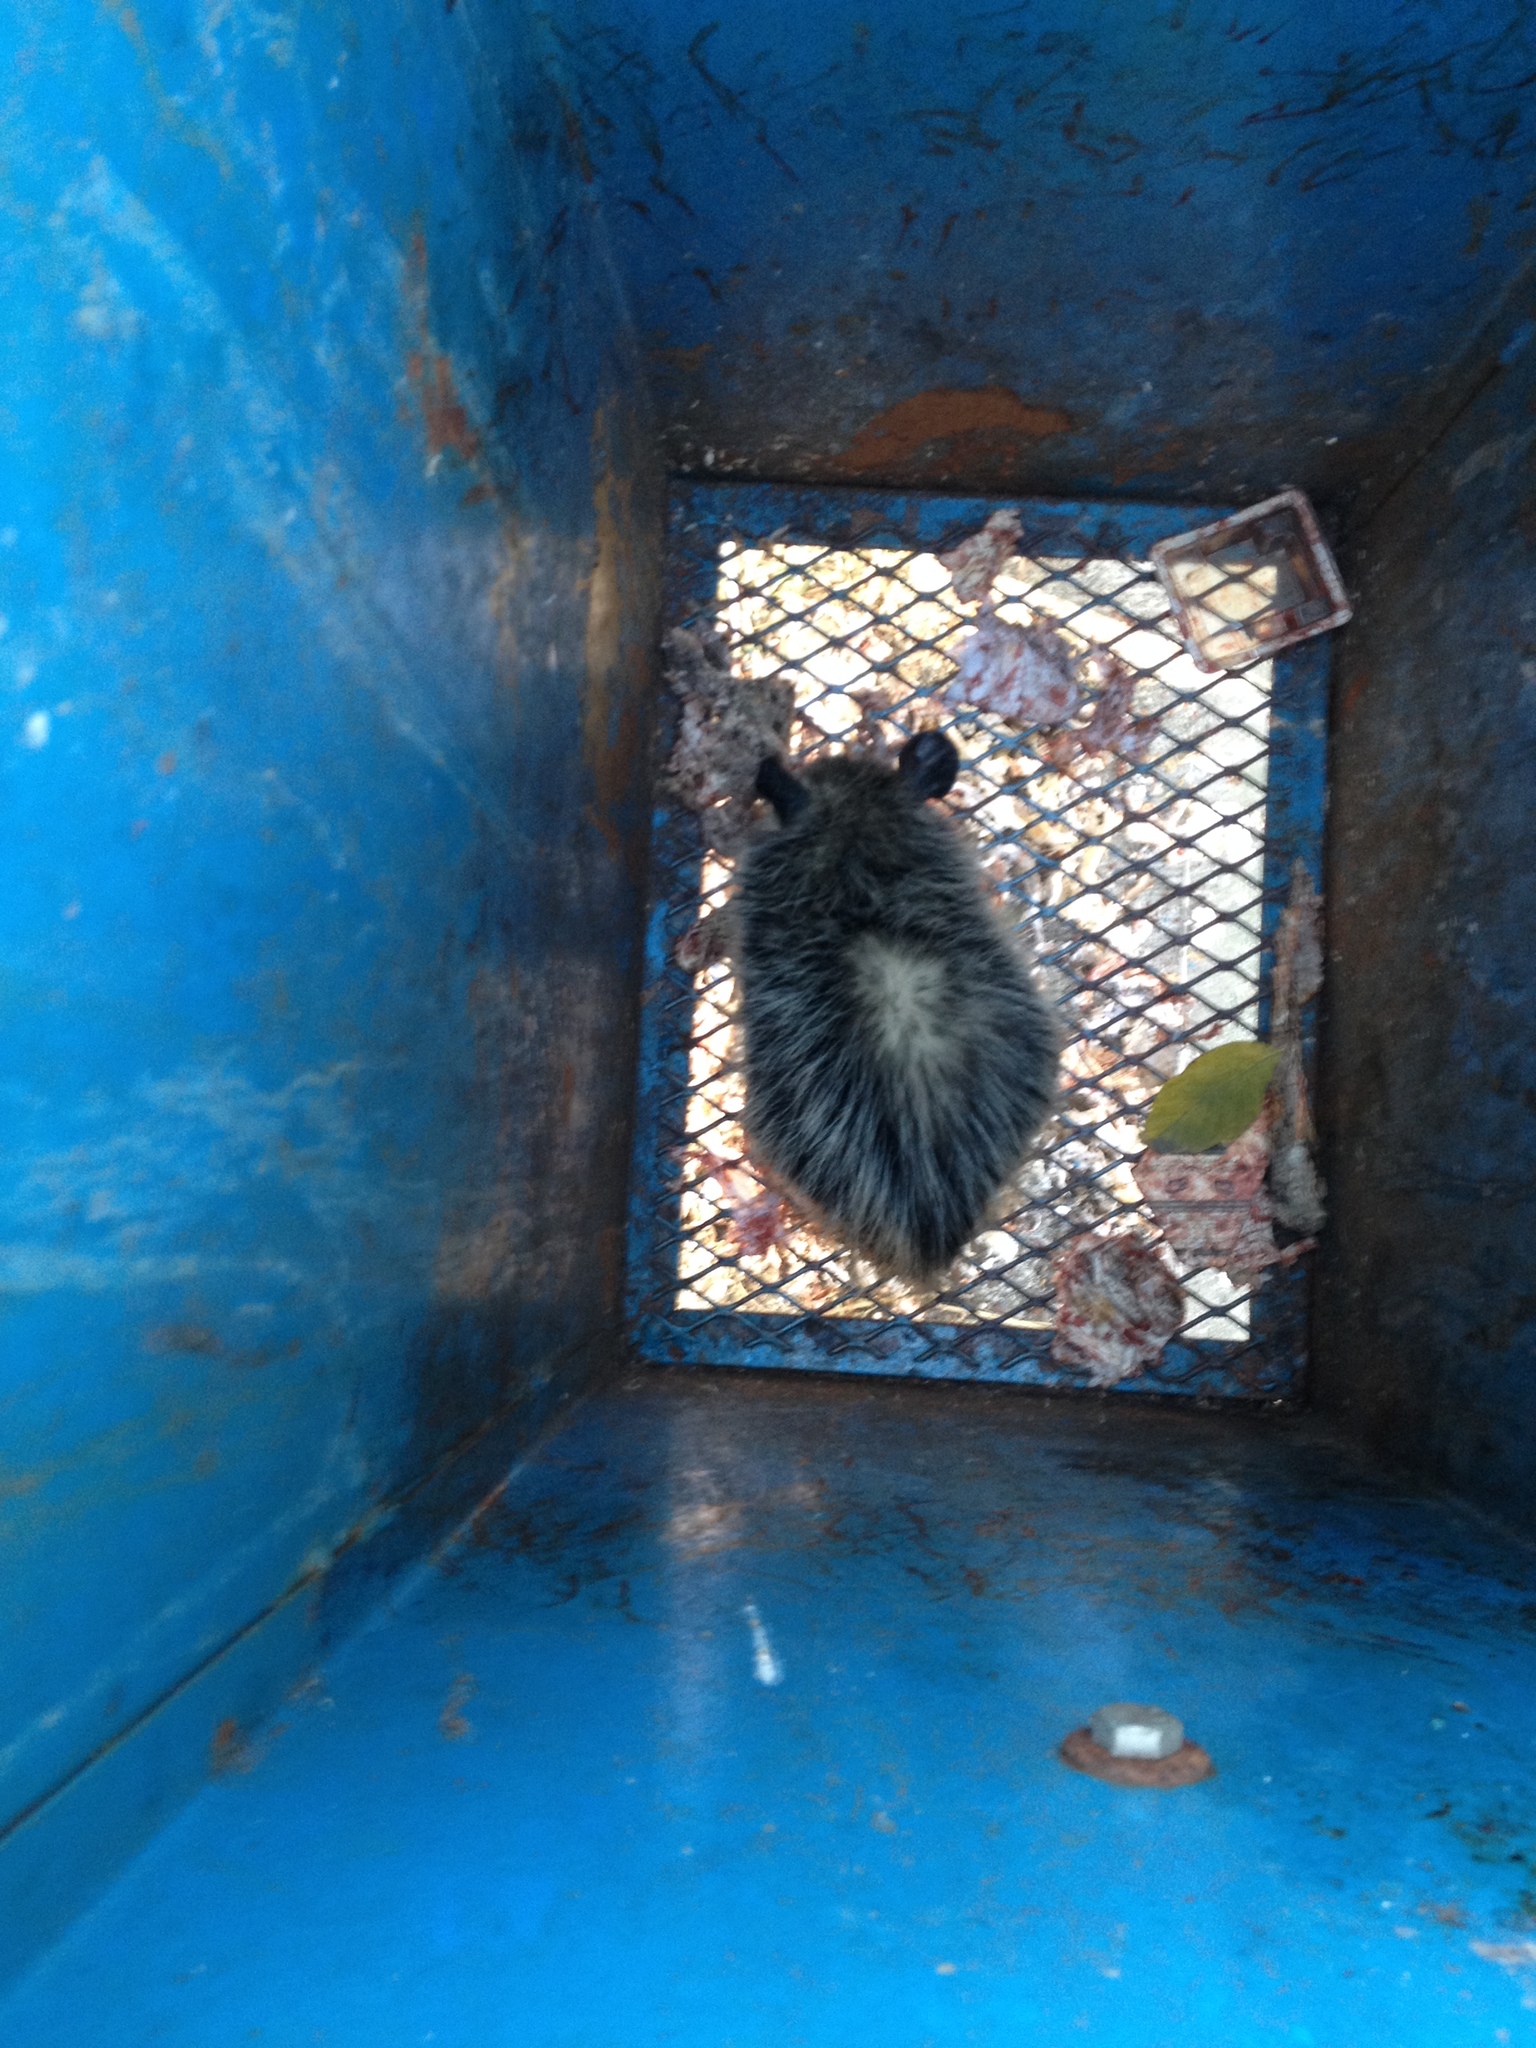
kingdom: Animalia
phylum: Chordata
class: Mammalia
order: Didelphimorphia
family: Didelphidae
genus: Didelphis
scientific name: Didelphis virginiana
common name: Virginia opossum
